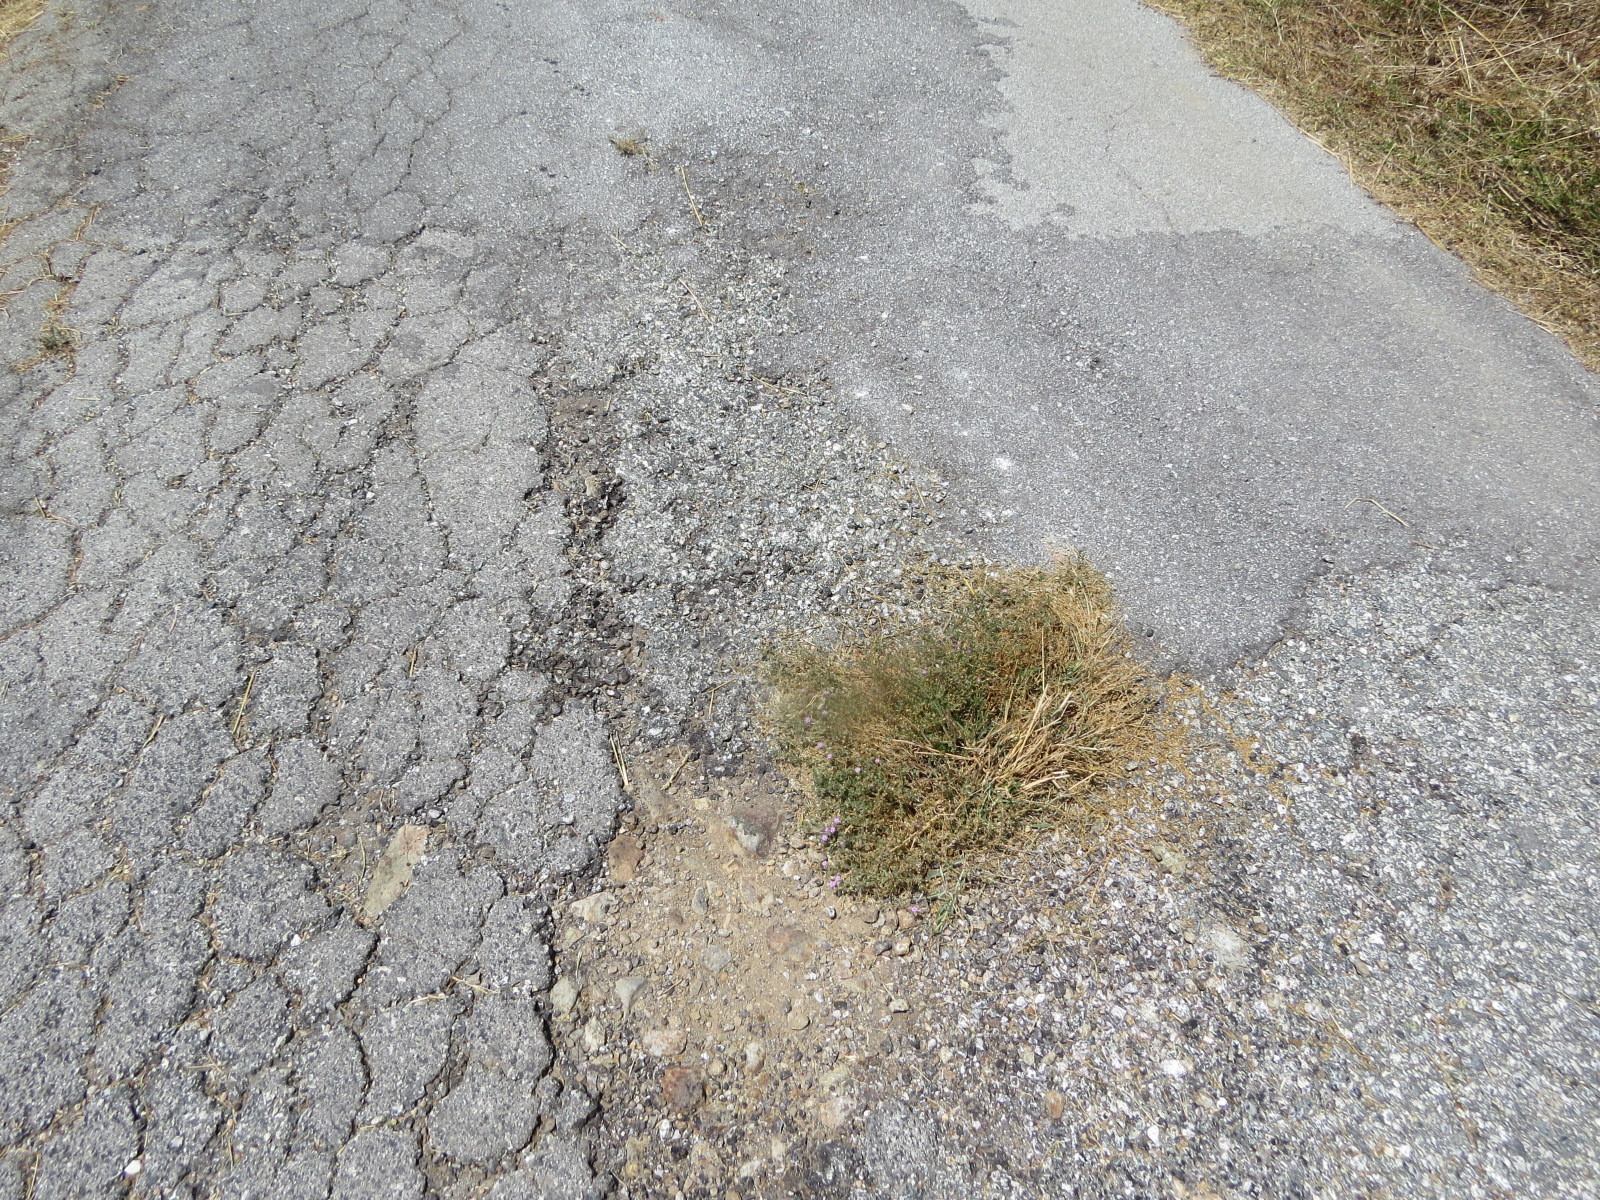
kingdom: Plantae
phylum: Tracheophyta
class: Magnoliopsida
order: Caryophyllales
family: Caryophyllaceae
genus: Spergularia
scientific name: Spergularia rubra
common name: Red sand-spurrey
